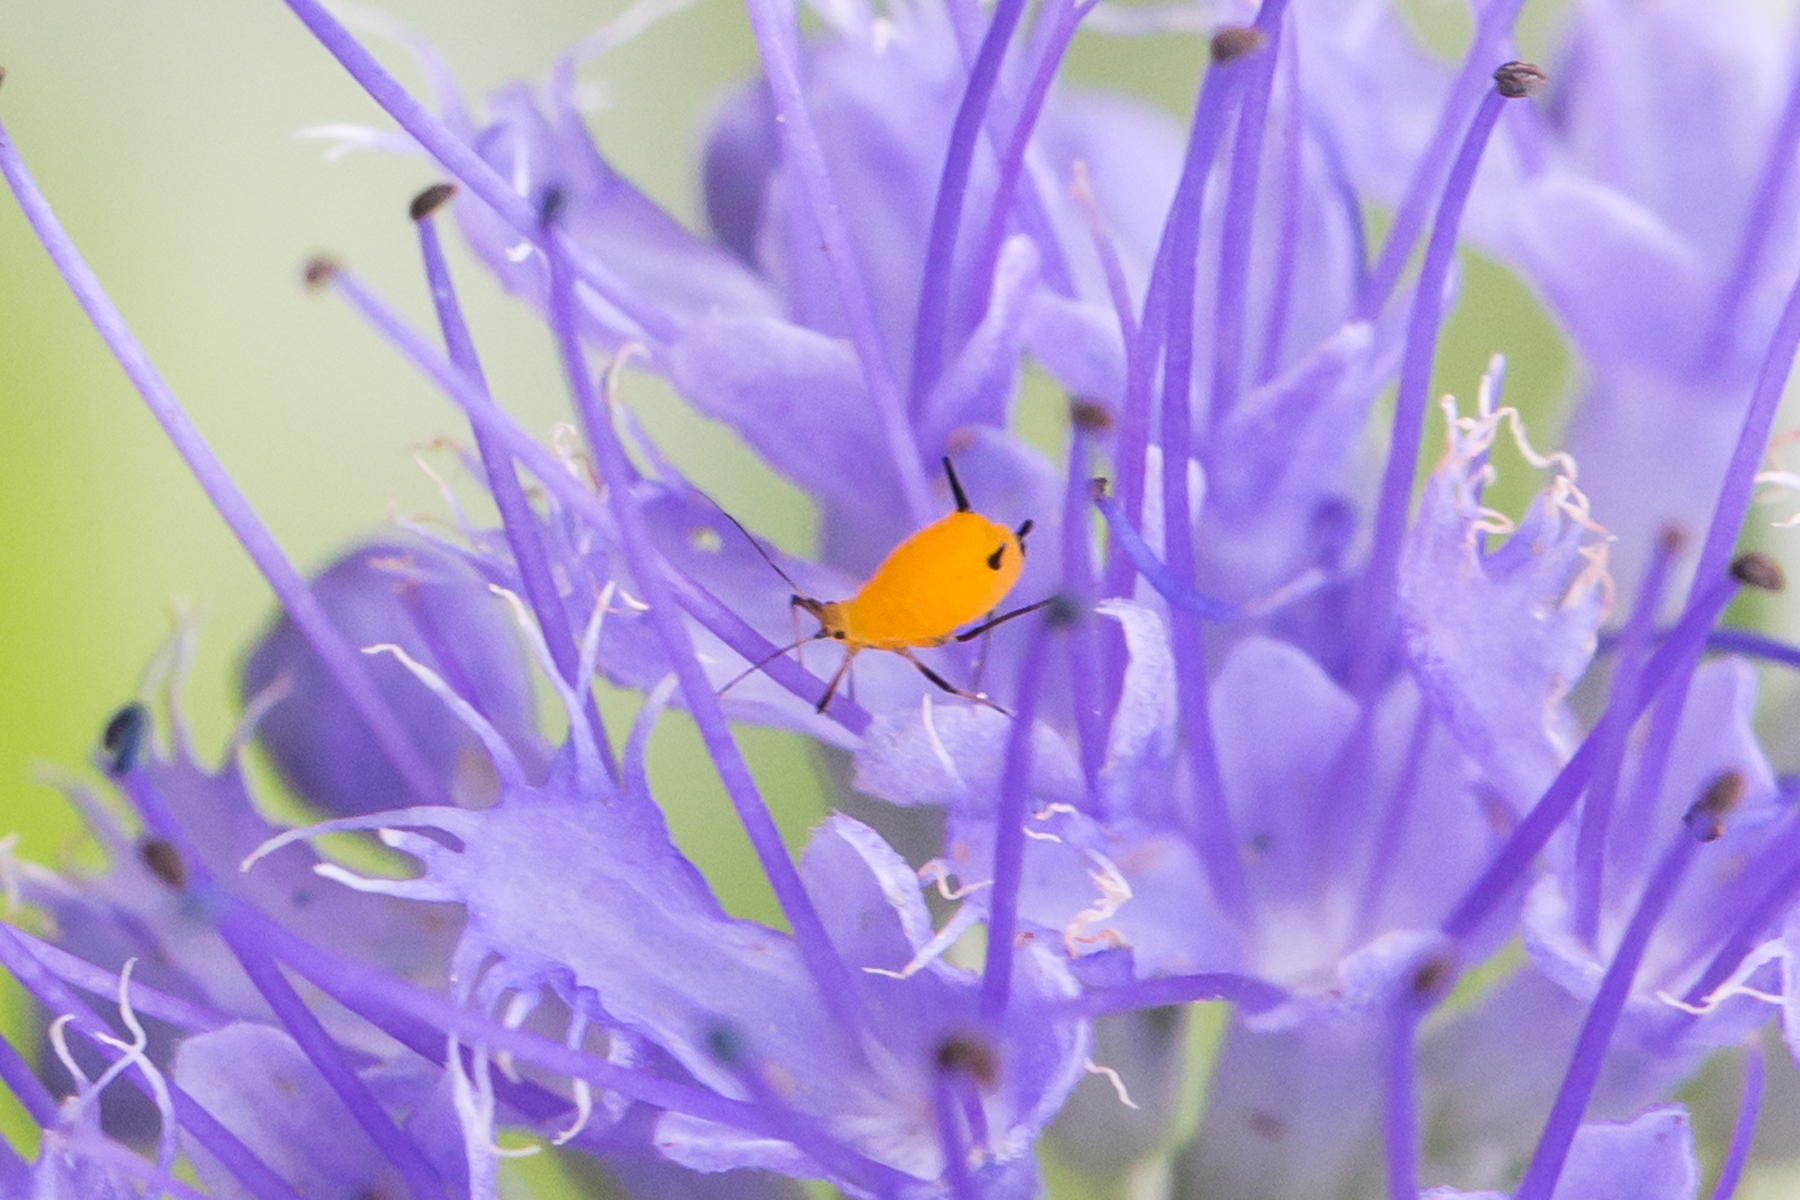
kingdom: Animalia
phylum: Arthropoda
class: Insecta
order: Hemiptera
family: Aphididae
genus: Aphis
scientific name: Aphis nerii
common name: Oleander aphid
